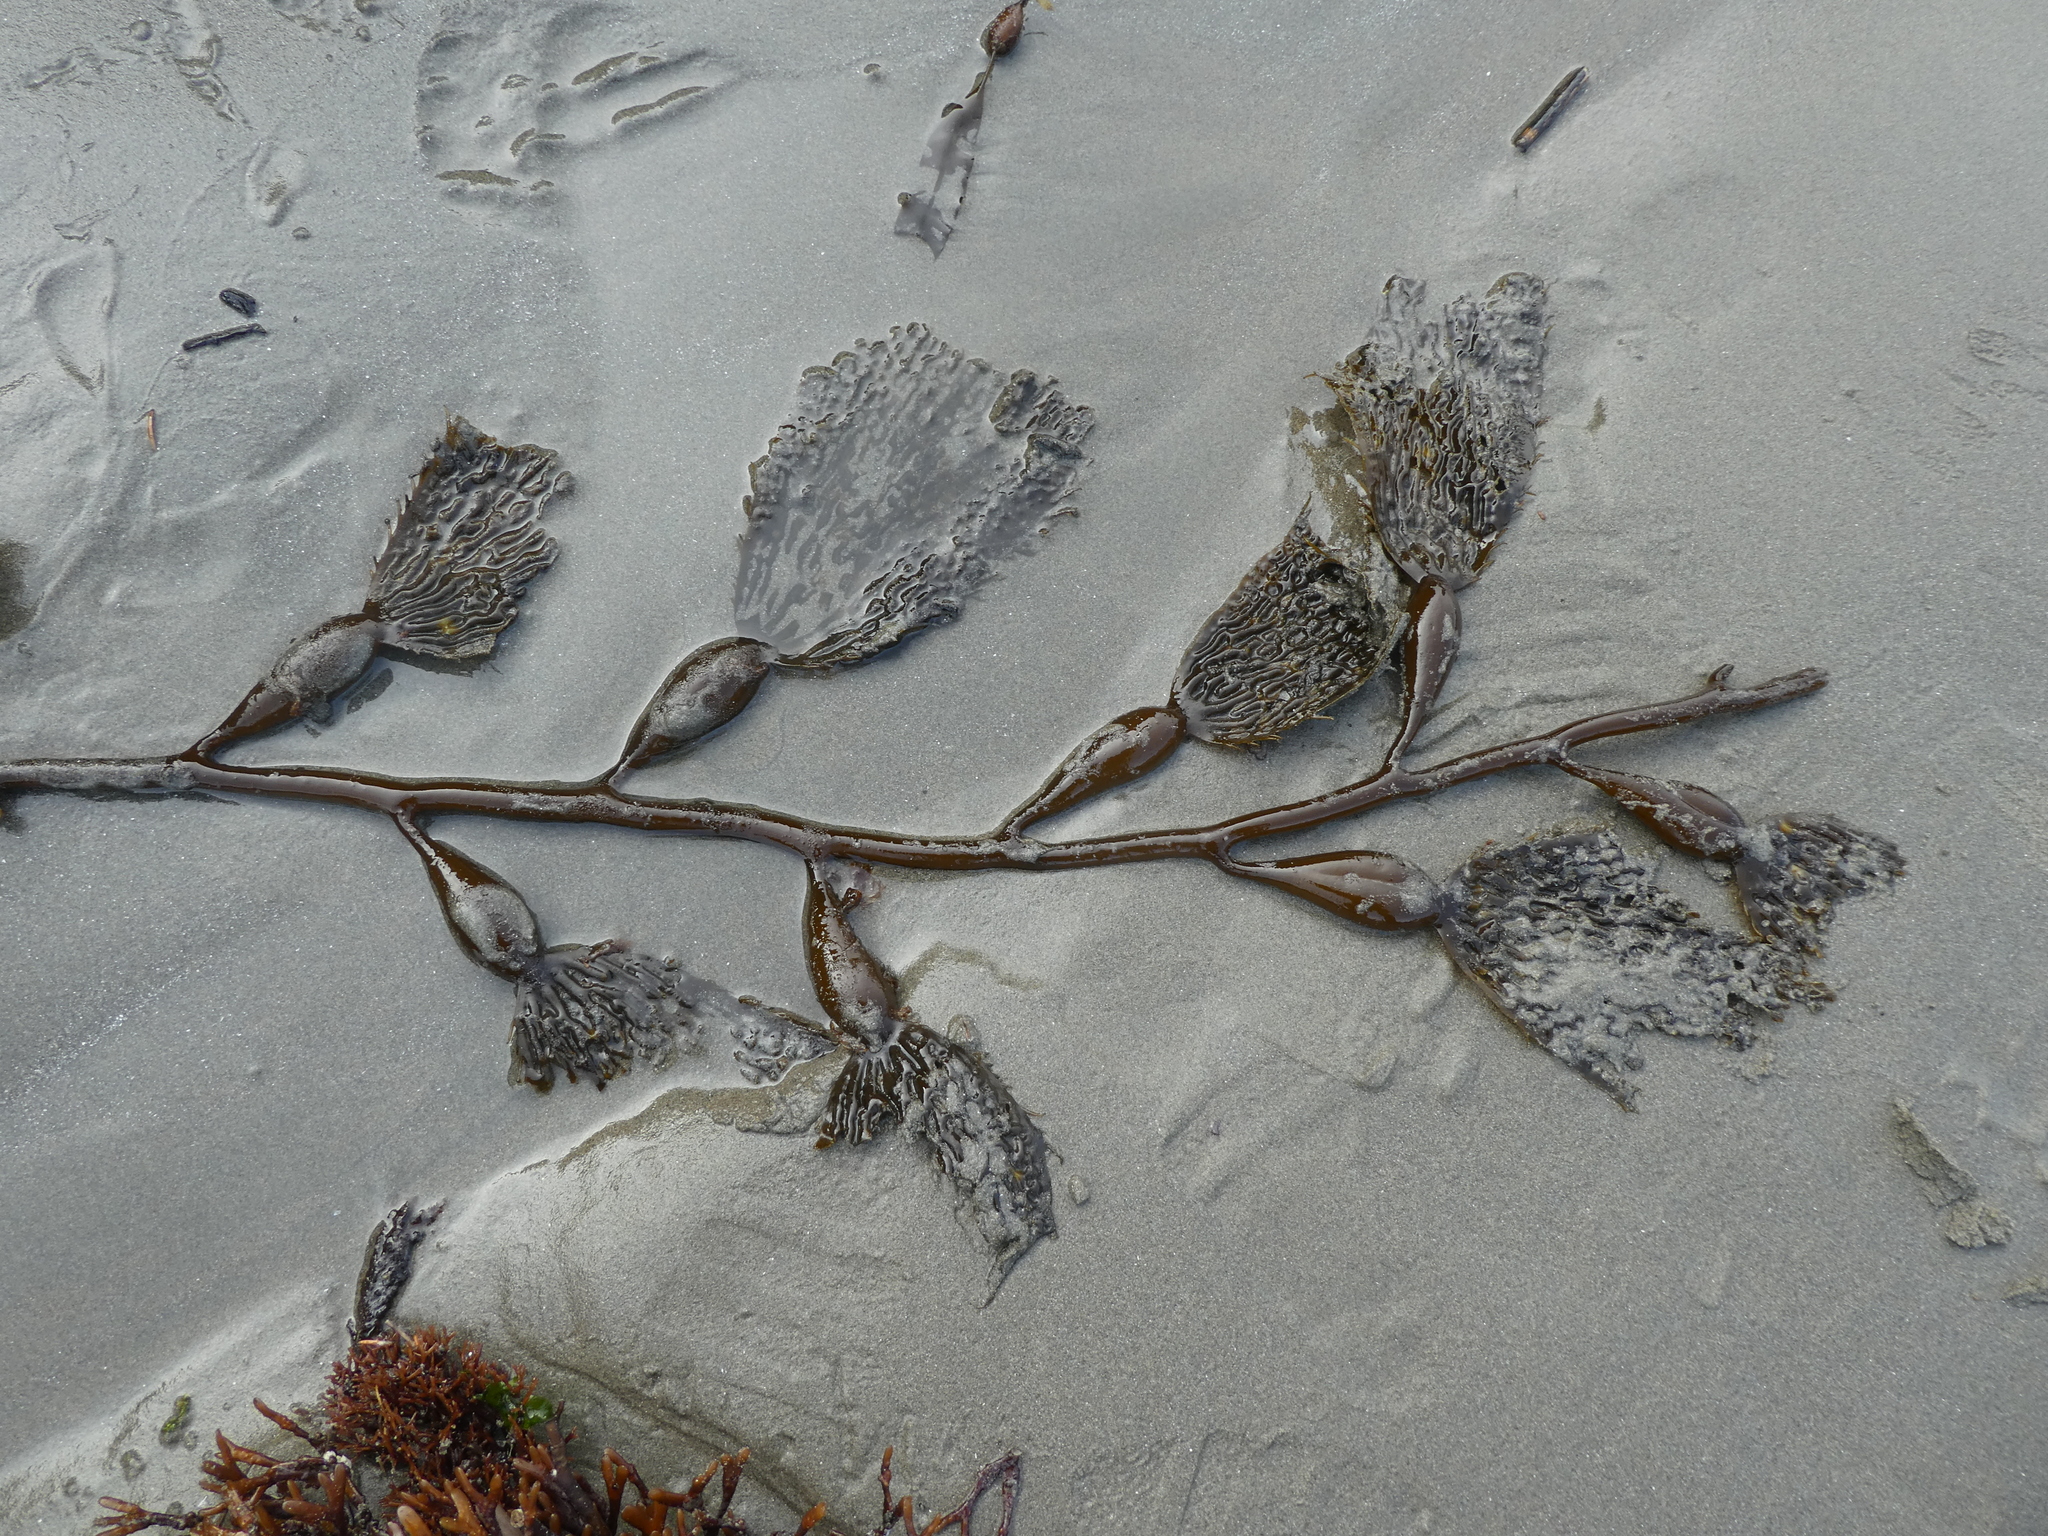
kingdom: Chromista
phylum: Ochrophyta
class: Phaeophyceae
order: Laminariales
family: Laminariaceae
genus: Macrocystis
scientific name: Macrocystis pyrifera
